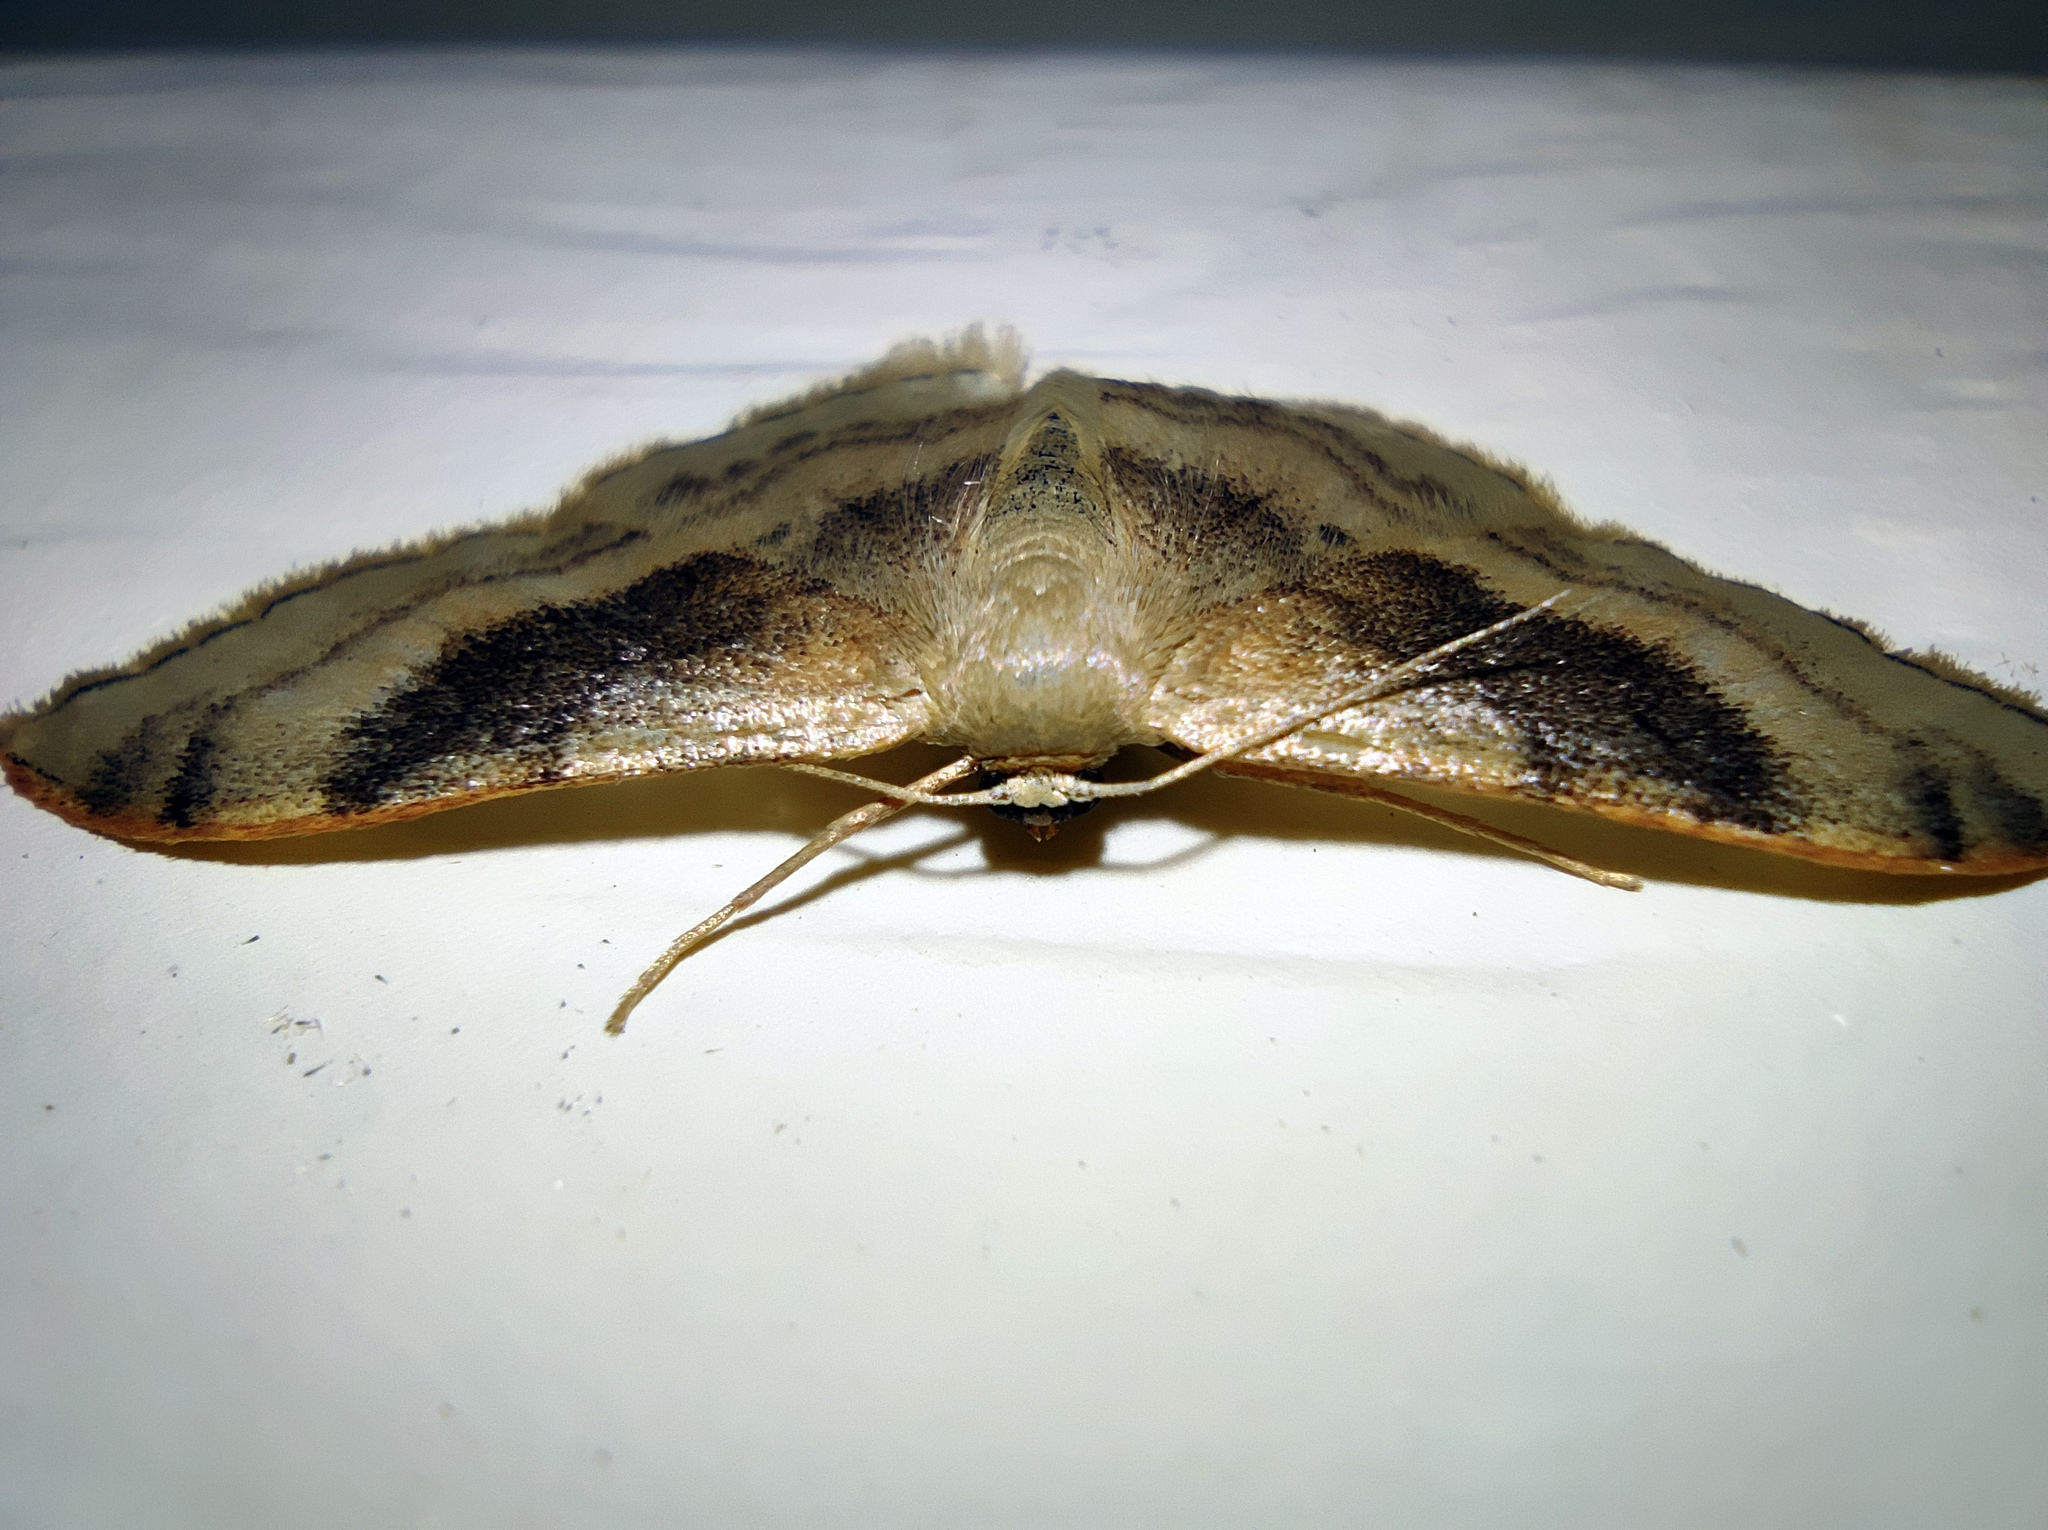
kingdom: Animalia
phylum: Arthropoda
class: Insecta
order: Lepidoptera
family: Geometridae
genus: Idaea
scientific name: Idaea degeneraria
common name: Portland ribbon wave
